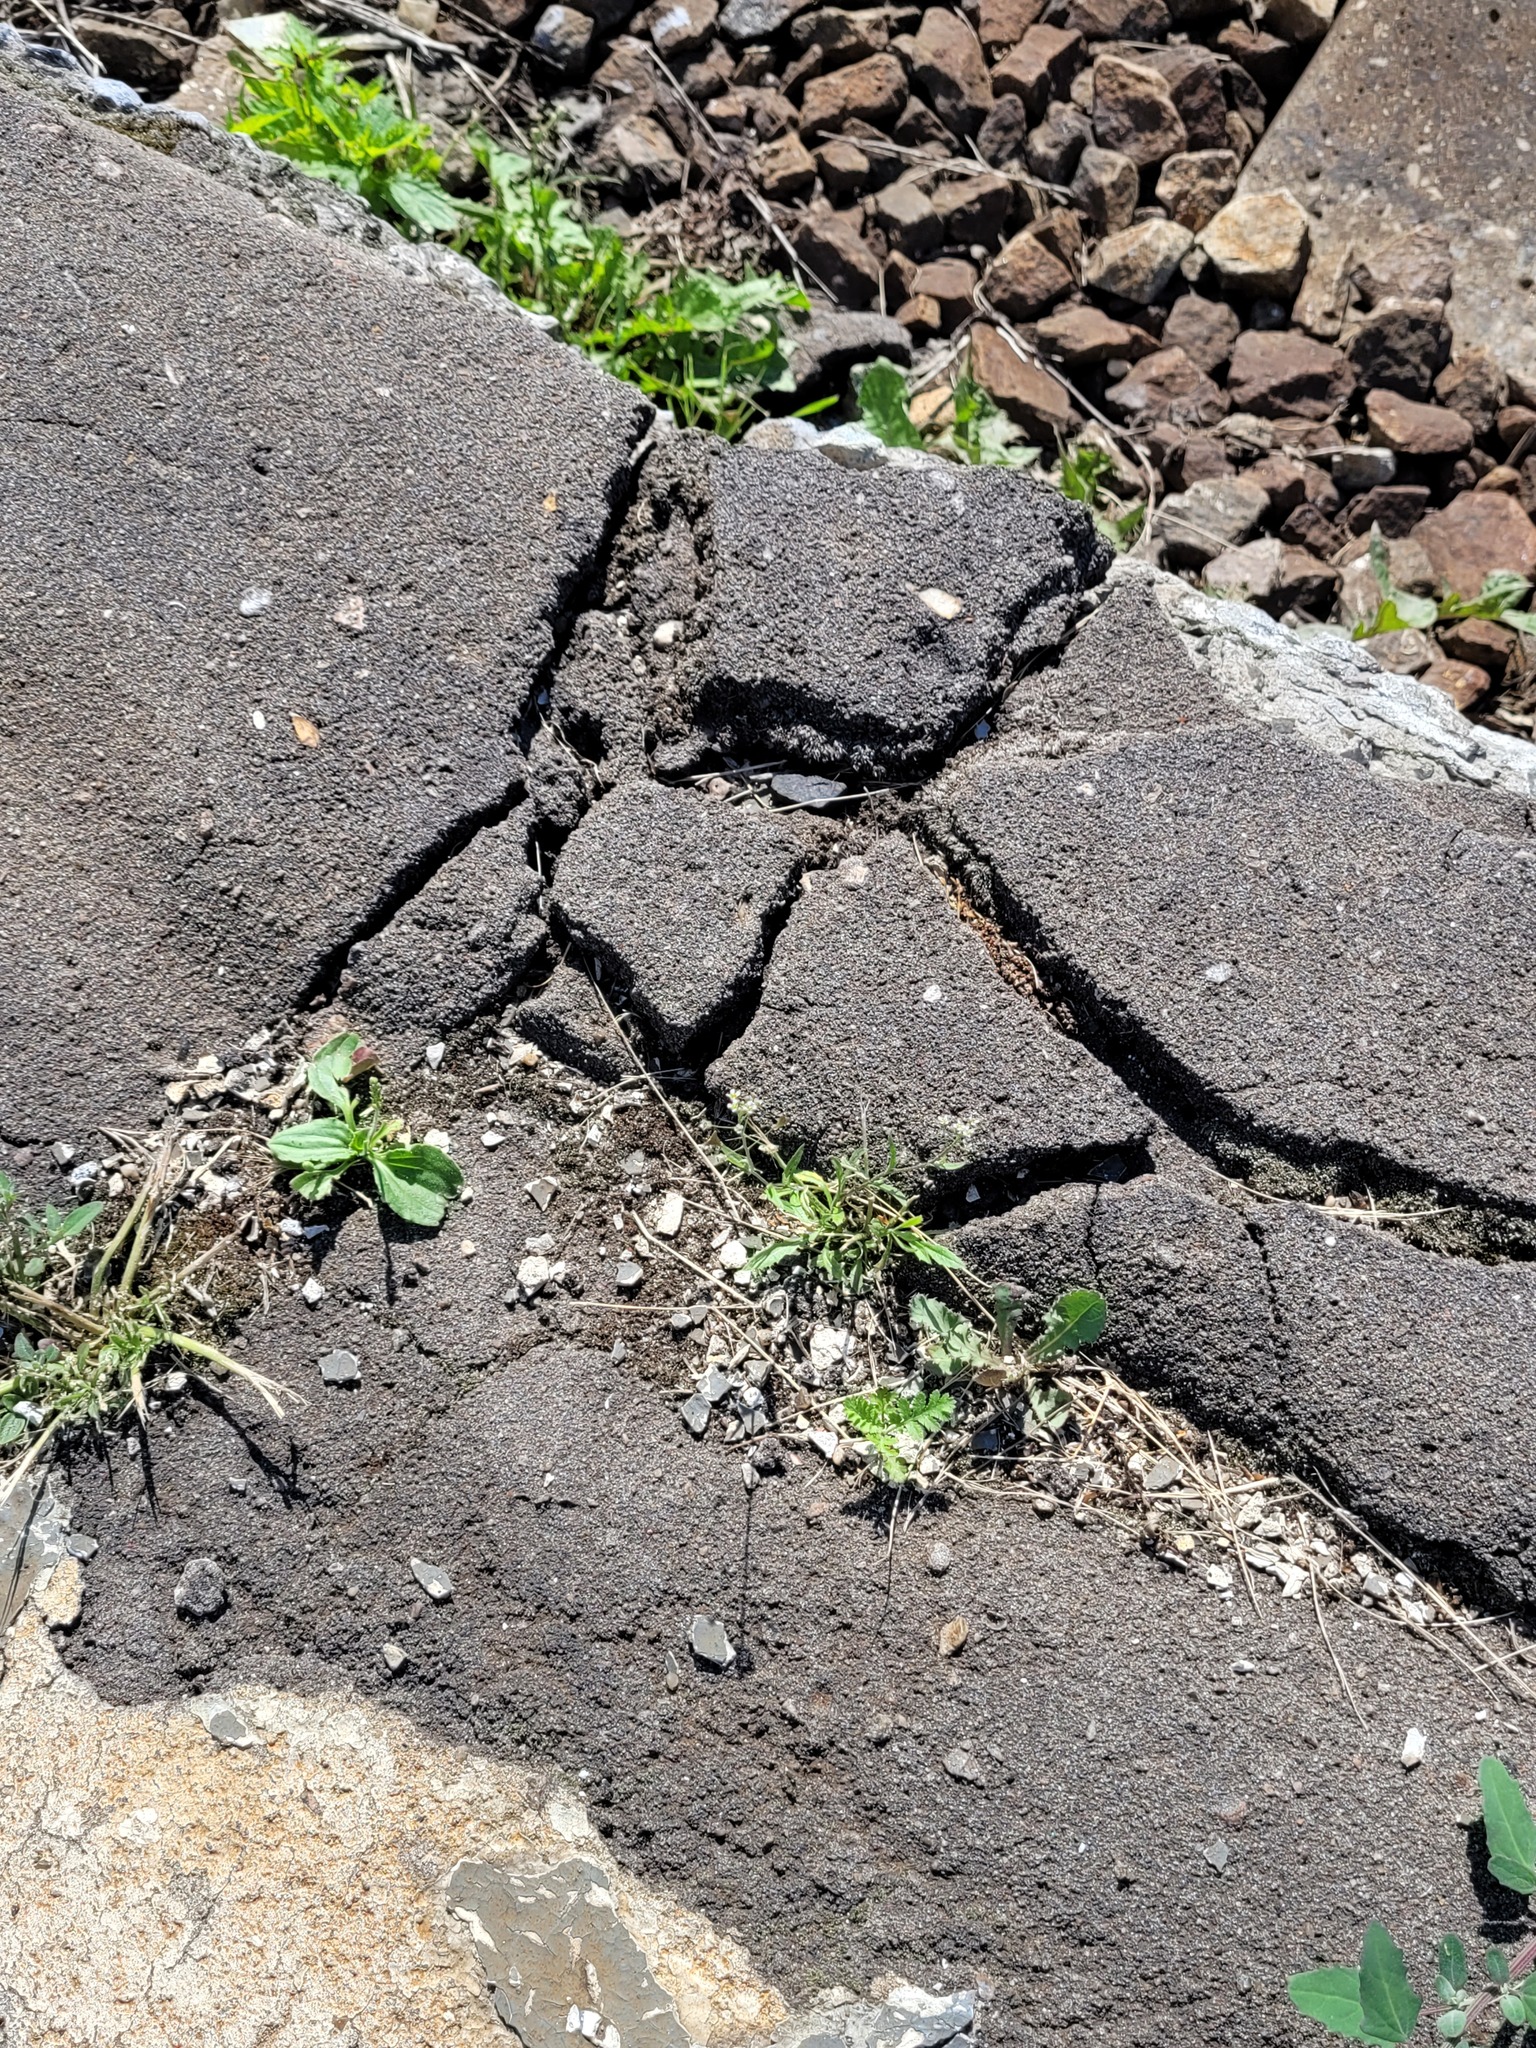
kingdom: Plantae
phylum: Tracheophyta
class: Magnoliopsida
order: Brassicales
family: Brassicaceae
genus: Capsella
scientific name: Capsella bursa-pastoris
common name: Shepherd's purse
